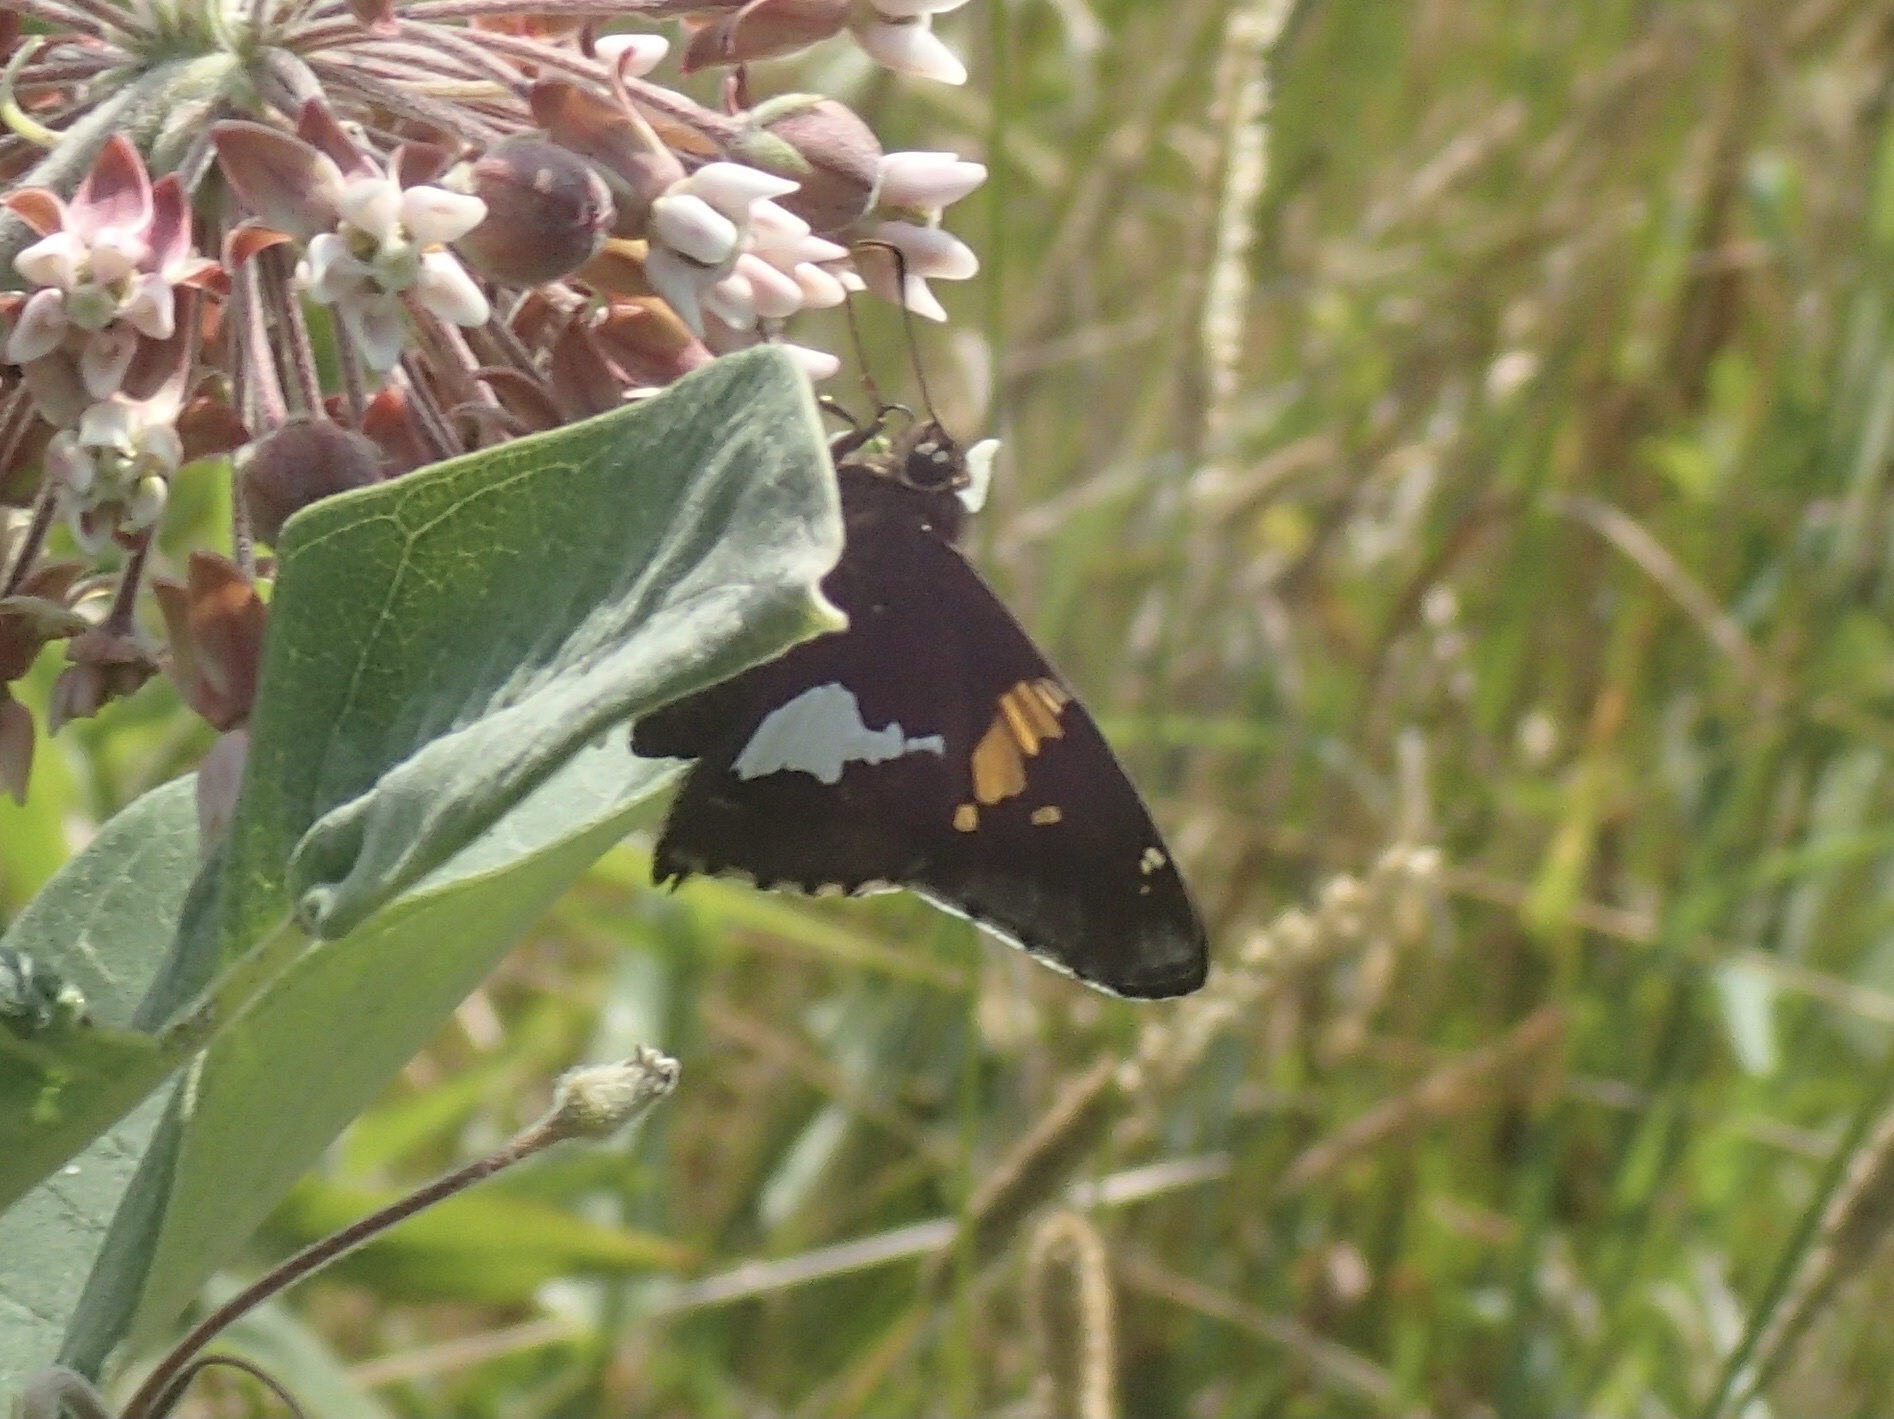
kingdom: Animalia
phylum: Arthropoda
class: Insecta
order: Lepidoptera
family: Hesperiidae
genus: Epargyreus
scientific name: Epargyreus clarus
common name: Silver-spotted skipper
